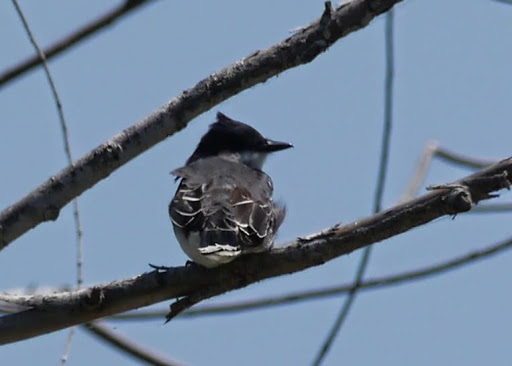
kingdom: Animalia
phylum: Chordata
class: Aves
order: Passeriformes
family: Tyrannidae
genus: Tyrannus
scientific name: Tyrannus tyrannus
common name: Eastern kingbird
